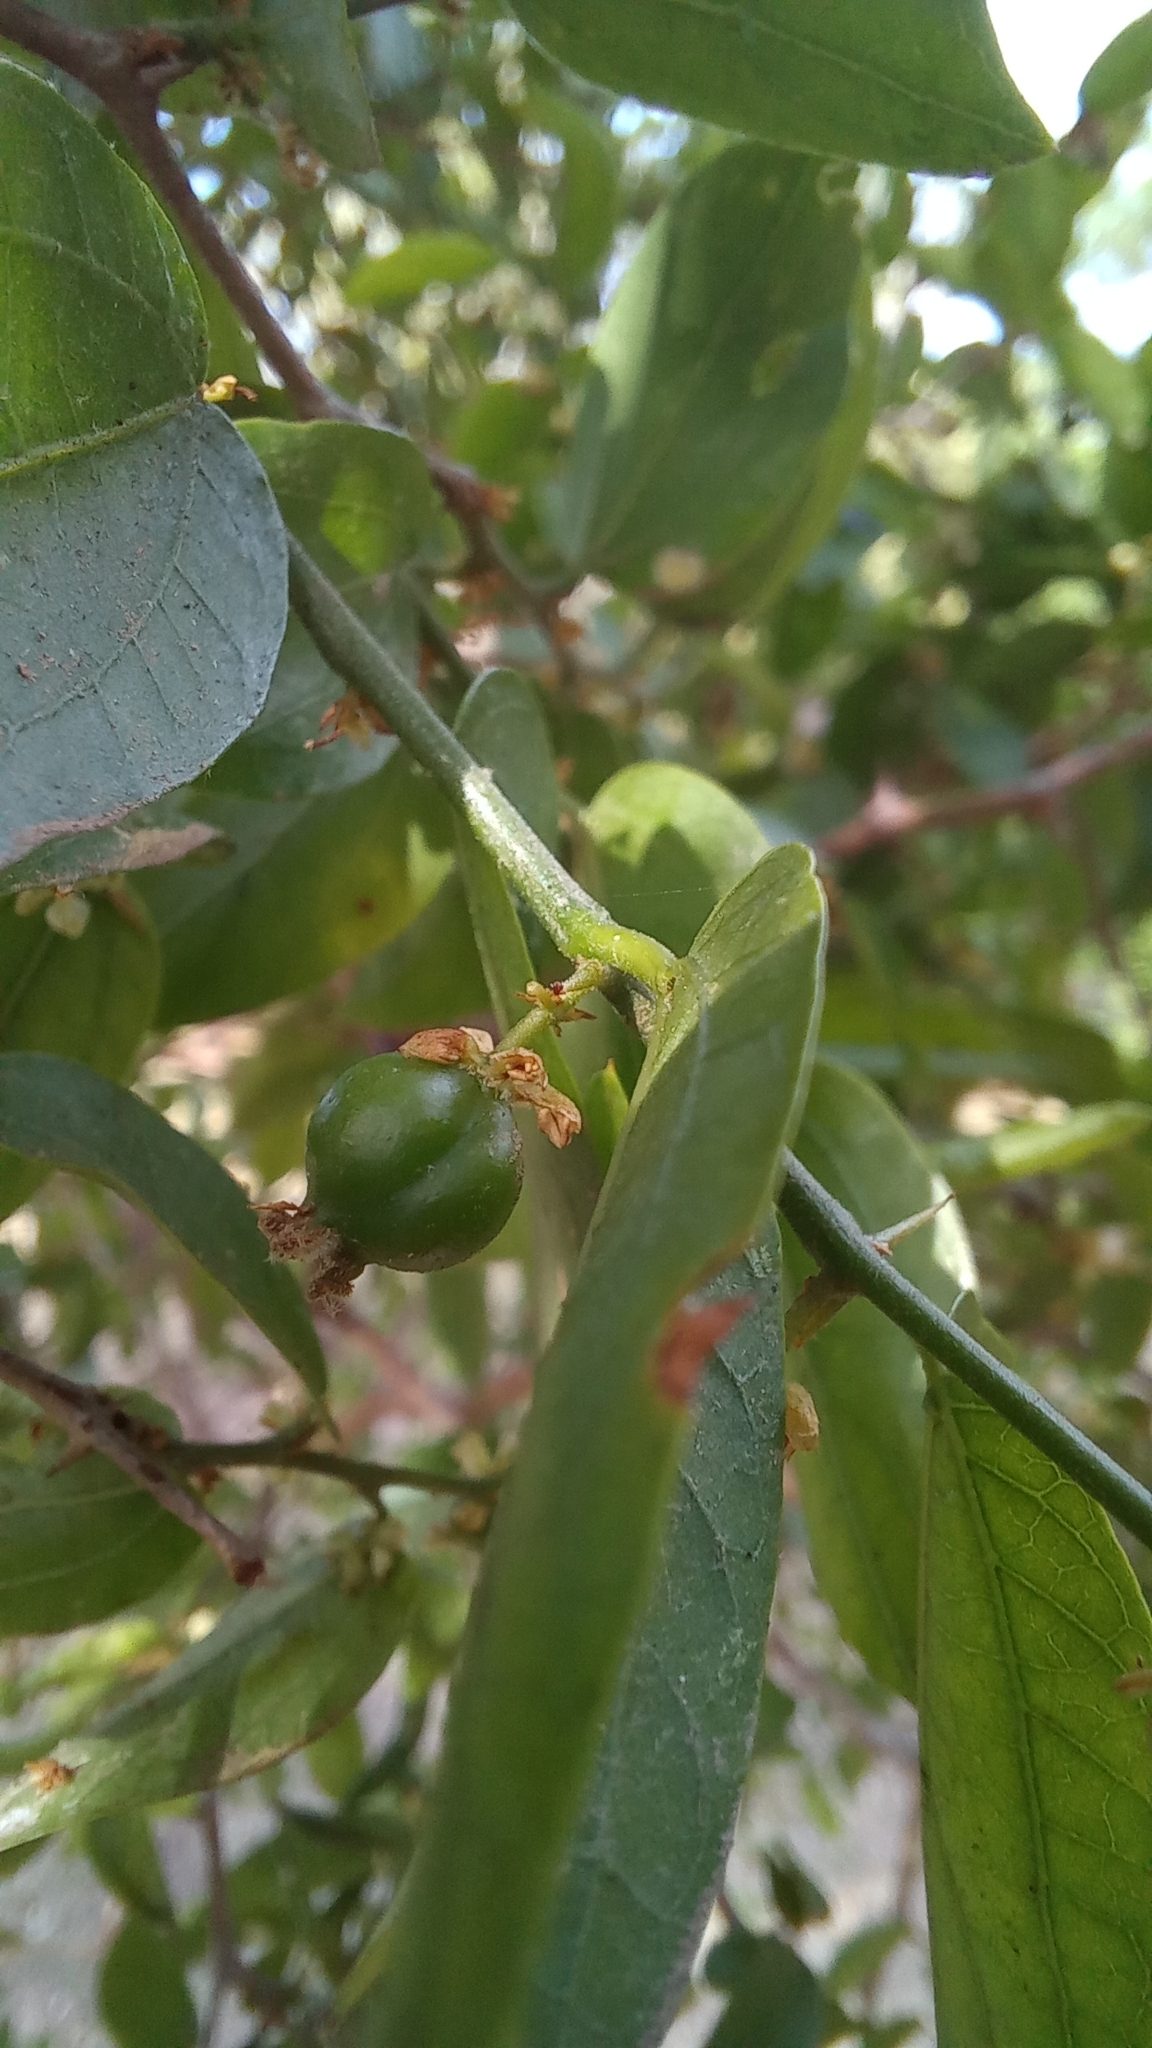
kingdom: Plantae
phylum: Tracheophyta
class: Magnoliopsida
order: Rosales
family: Cannabaceae
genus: Celtis
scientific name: Celtis tala
